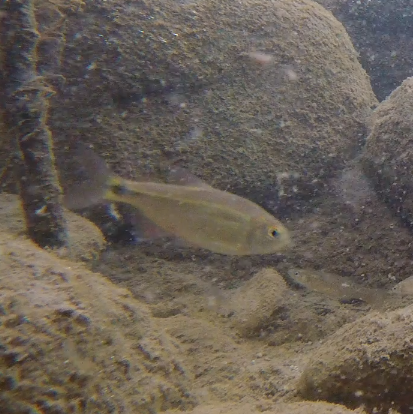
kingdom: Animalia
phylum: Chordata
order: Characiformes
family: Characidae
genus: Astyanax
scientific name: Astyanax eigenmanniorum
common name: Tetra
